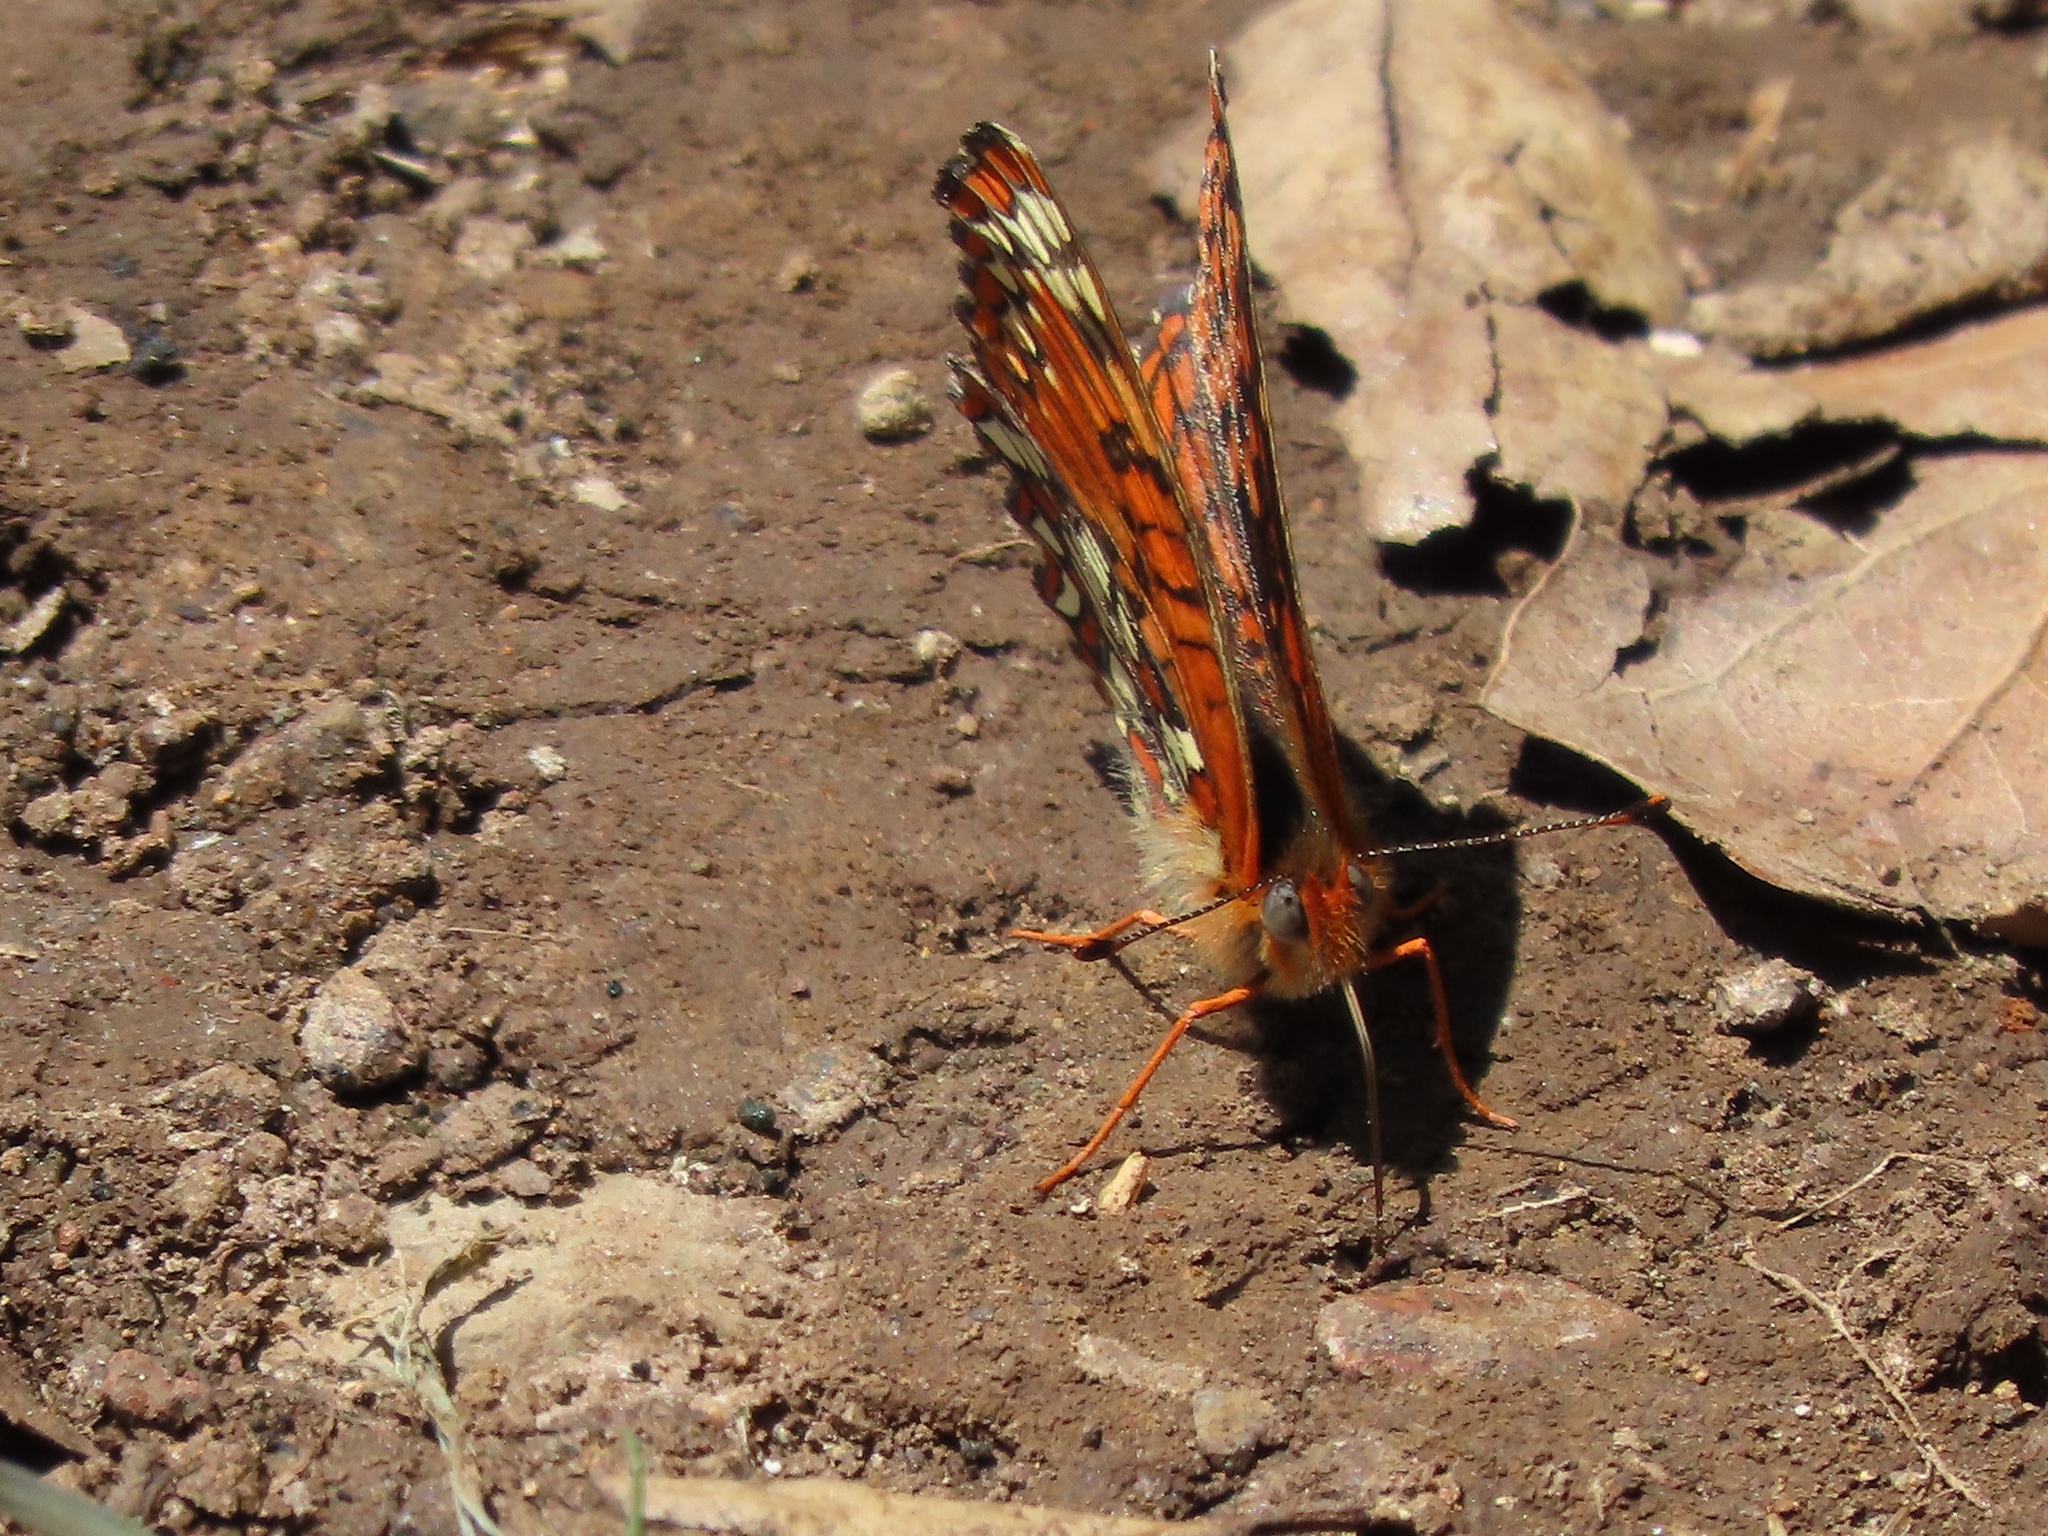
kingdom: Animalia
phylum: Arthropoda
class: Insecta
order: Lepidoptera
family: Nymphalidae
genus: Chlosyne
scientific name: Chlosyne palla
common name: Northern checkerspot
